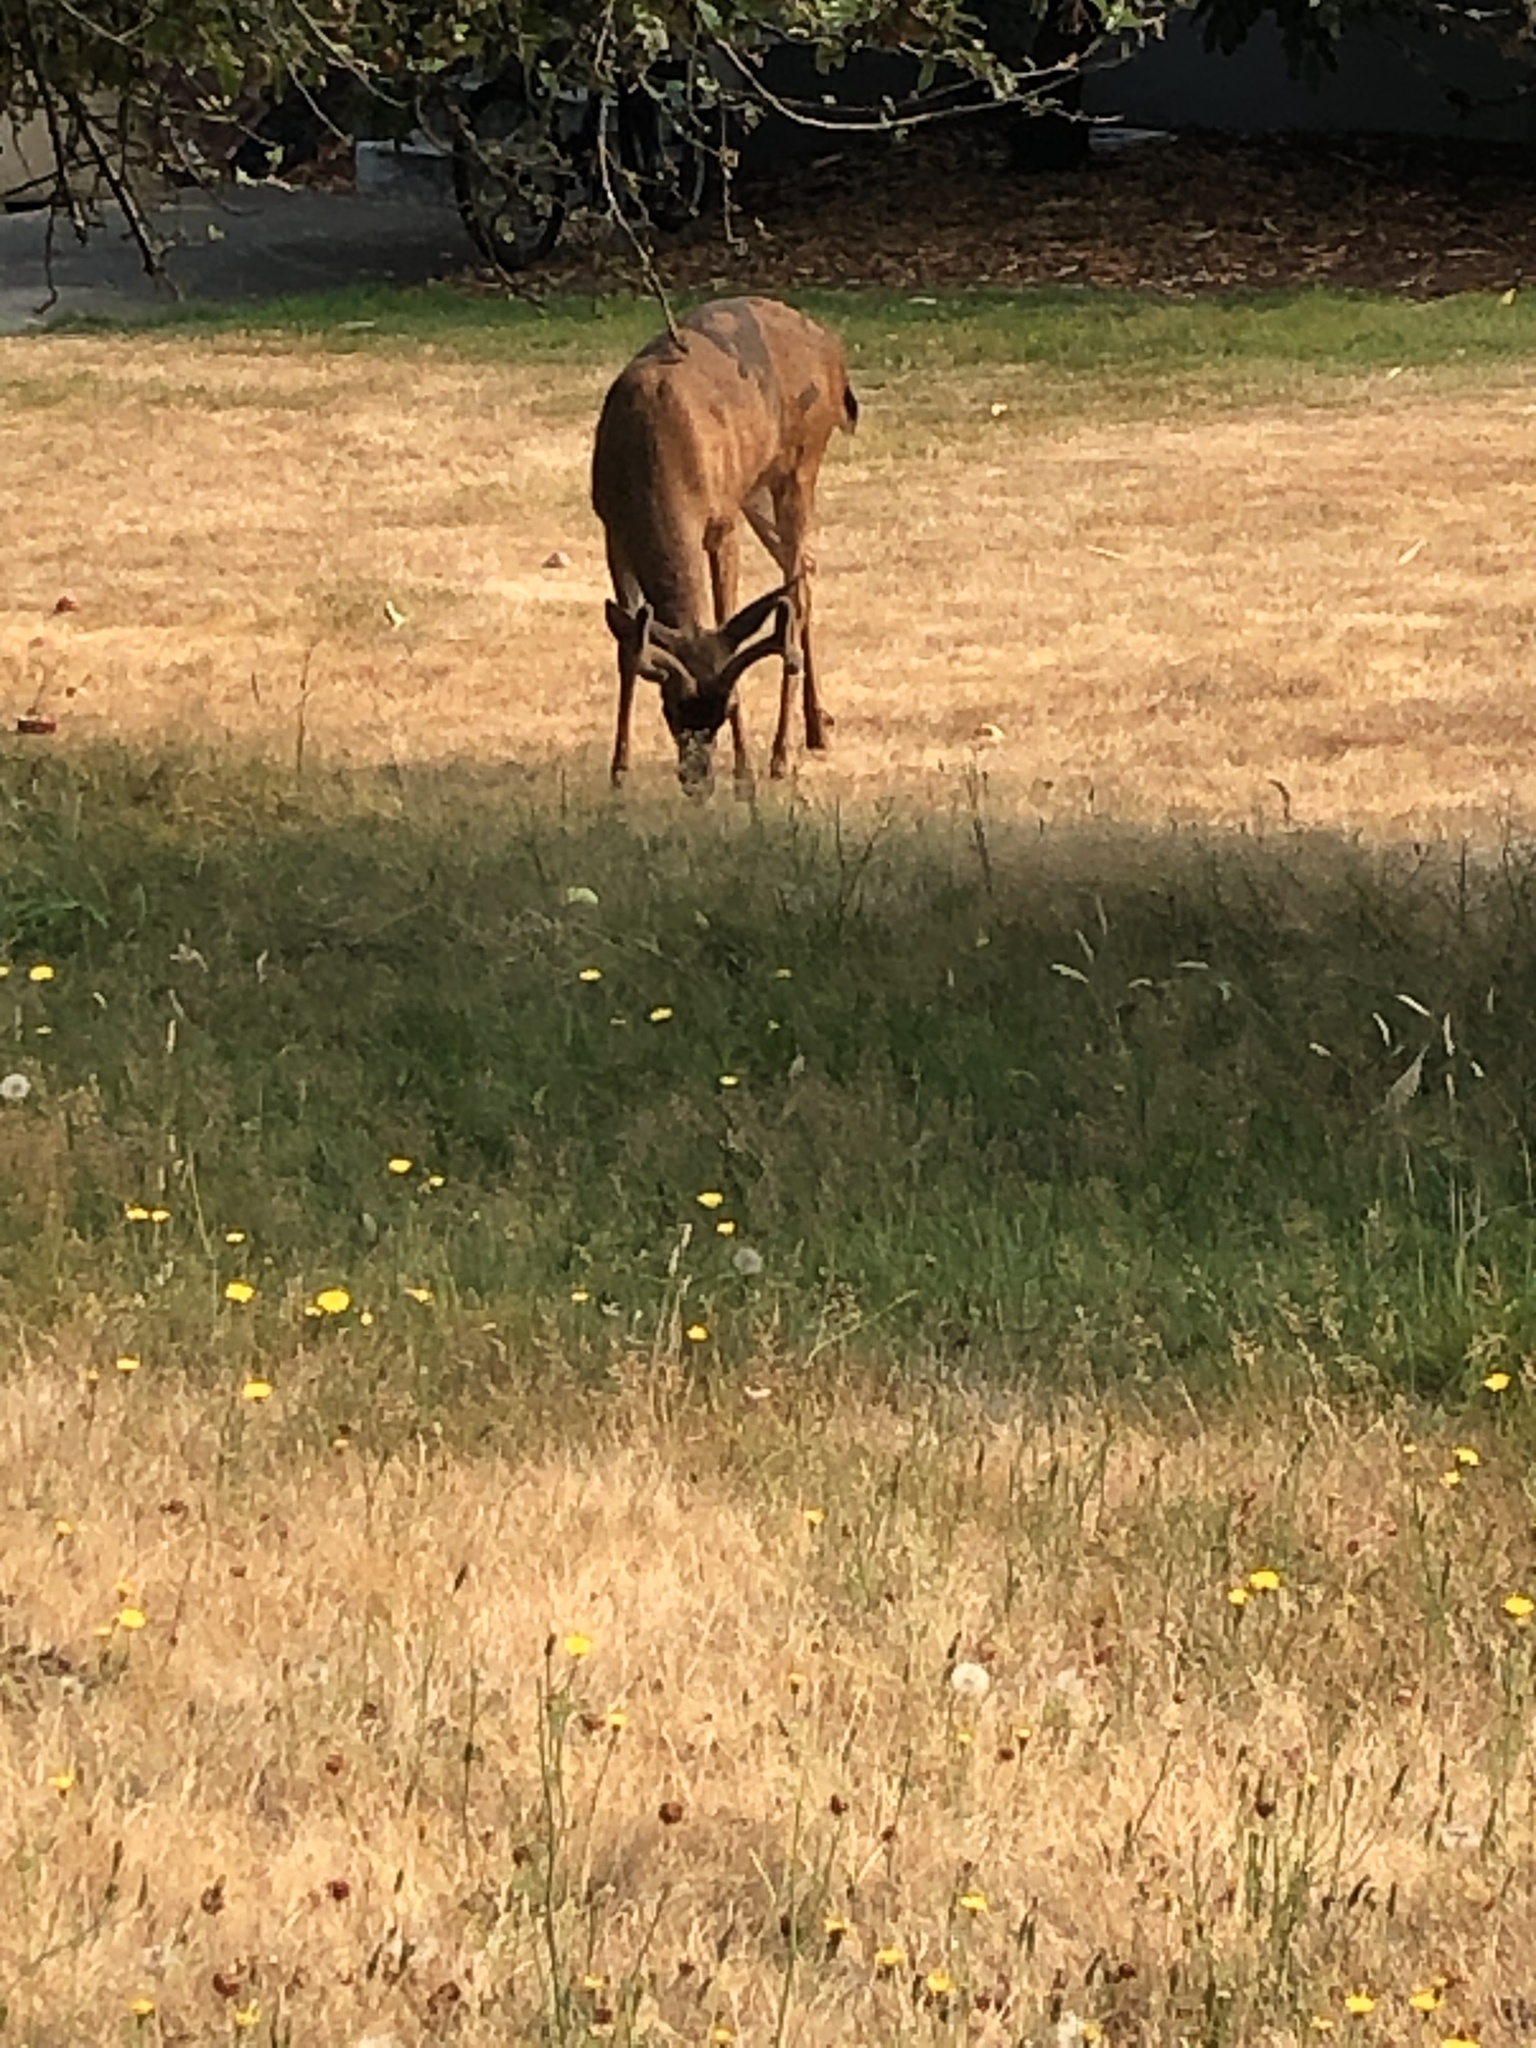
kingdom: Animalia
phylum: Chordata
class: Mammalia
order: Artiodactyla
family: Cervidae
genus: Odocoileus
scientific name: Odocoileus hemionus
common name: Mule deer
